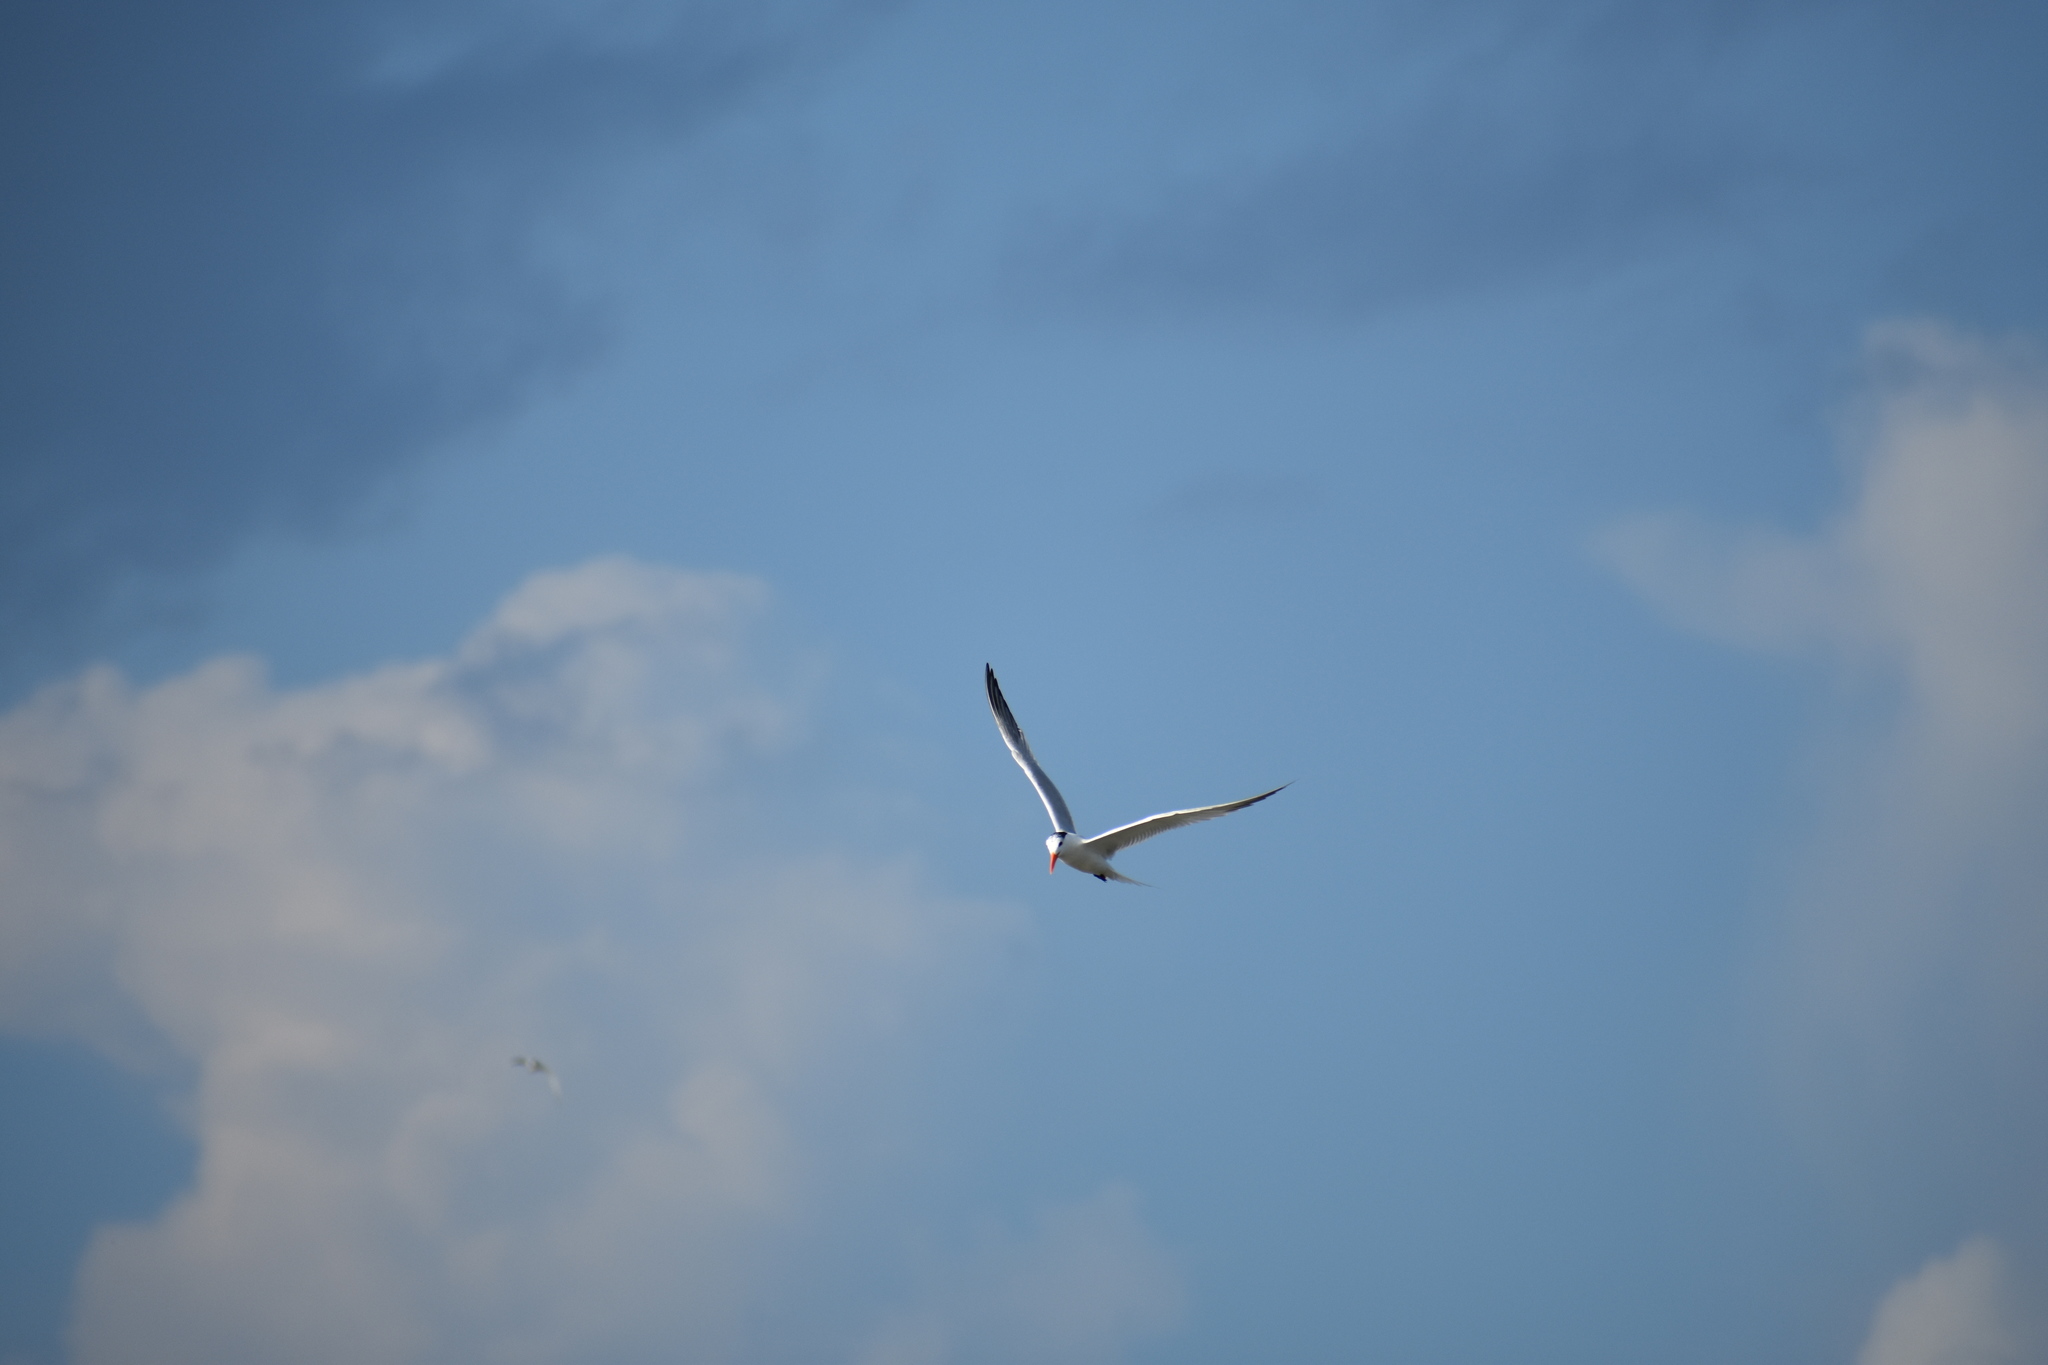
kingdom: Animalia
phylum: Chordata
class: Aves
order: Charadriiformes
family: Laridae
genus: Thalasseus
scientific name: Thalasseus maximus
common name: Royal tern
